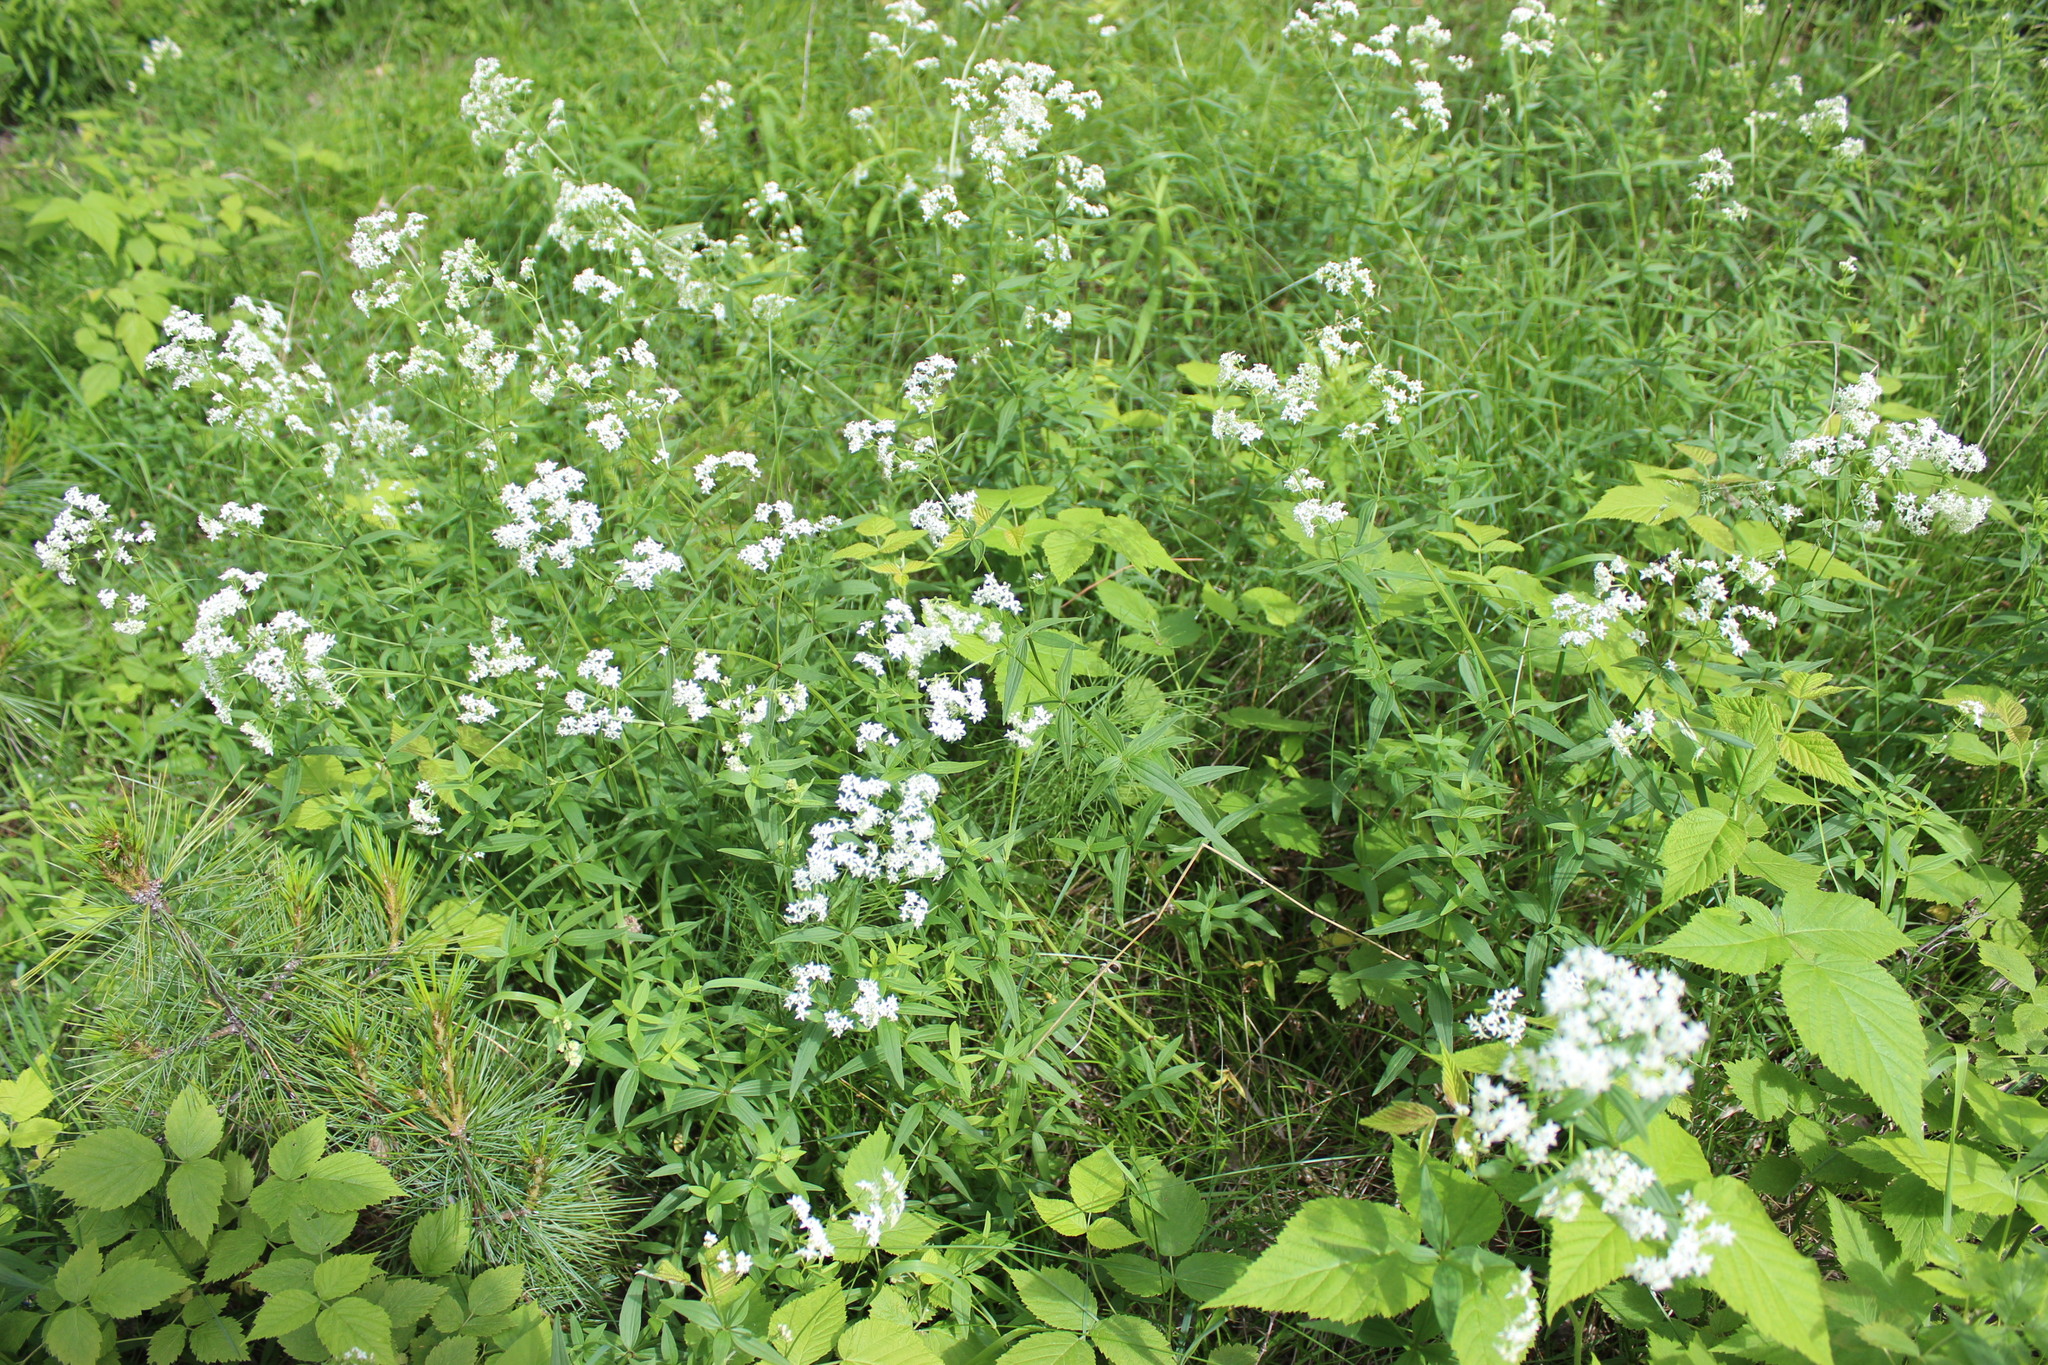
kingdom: Plantae
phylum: Tracheophyta
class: Magnoliopsida
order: Gentianales
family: Rubiaceae
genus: Galium
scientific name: Galium boreale
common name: Northern bedstraw
